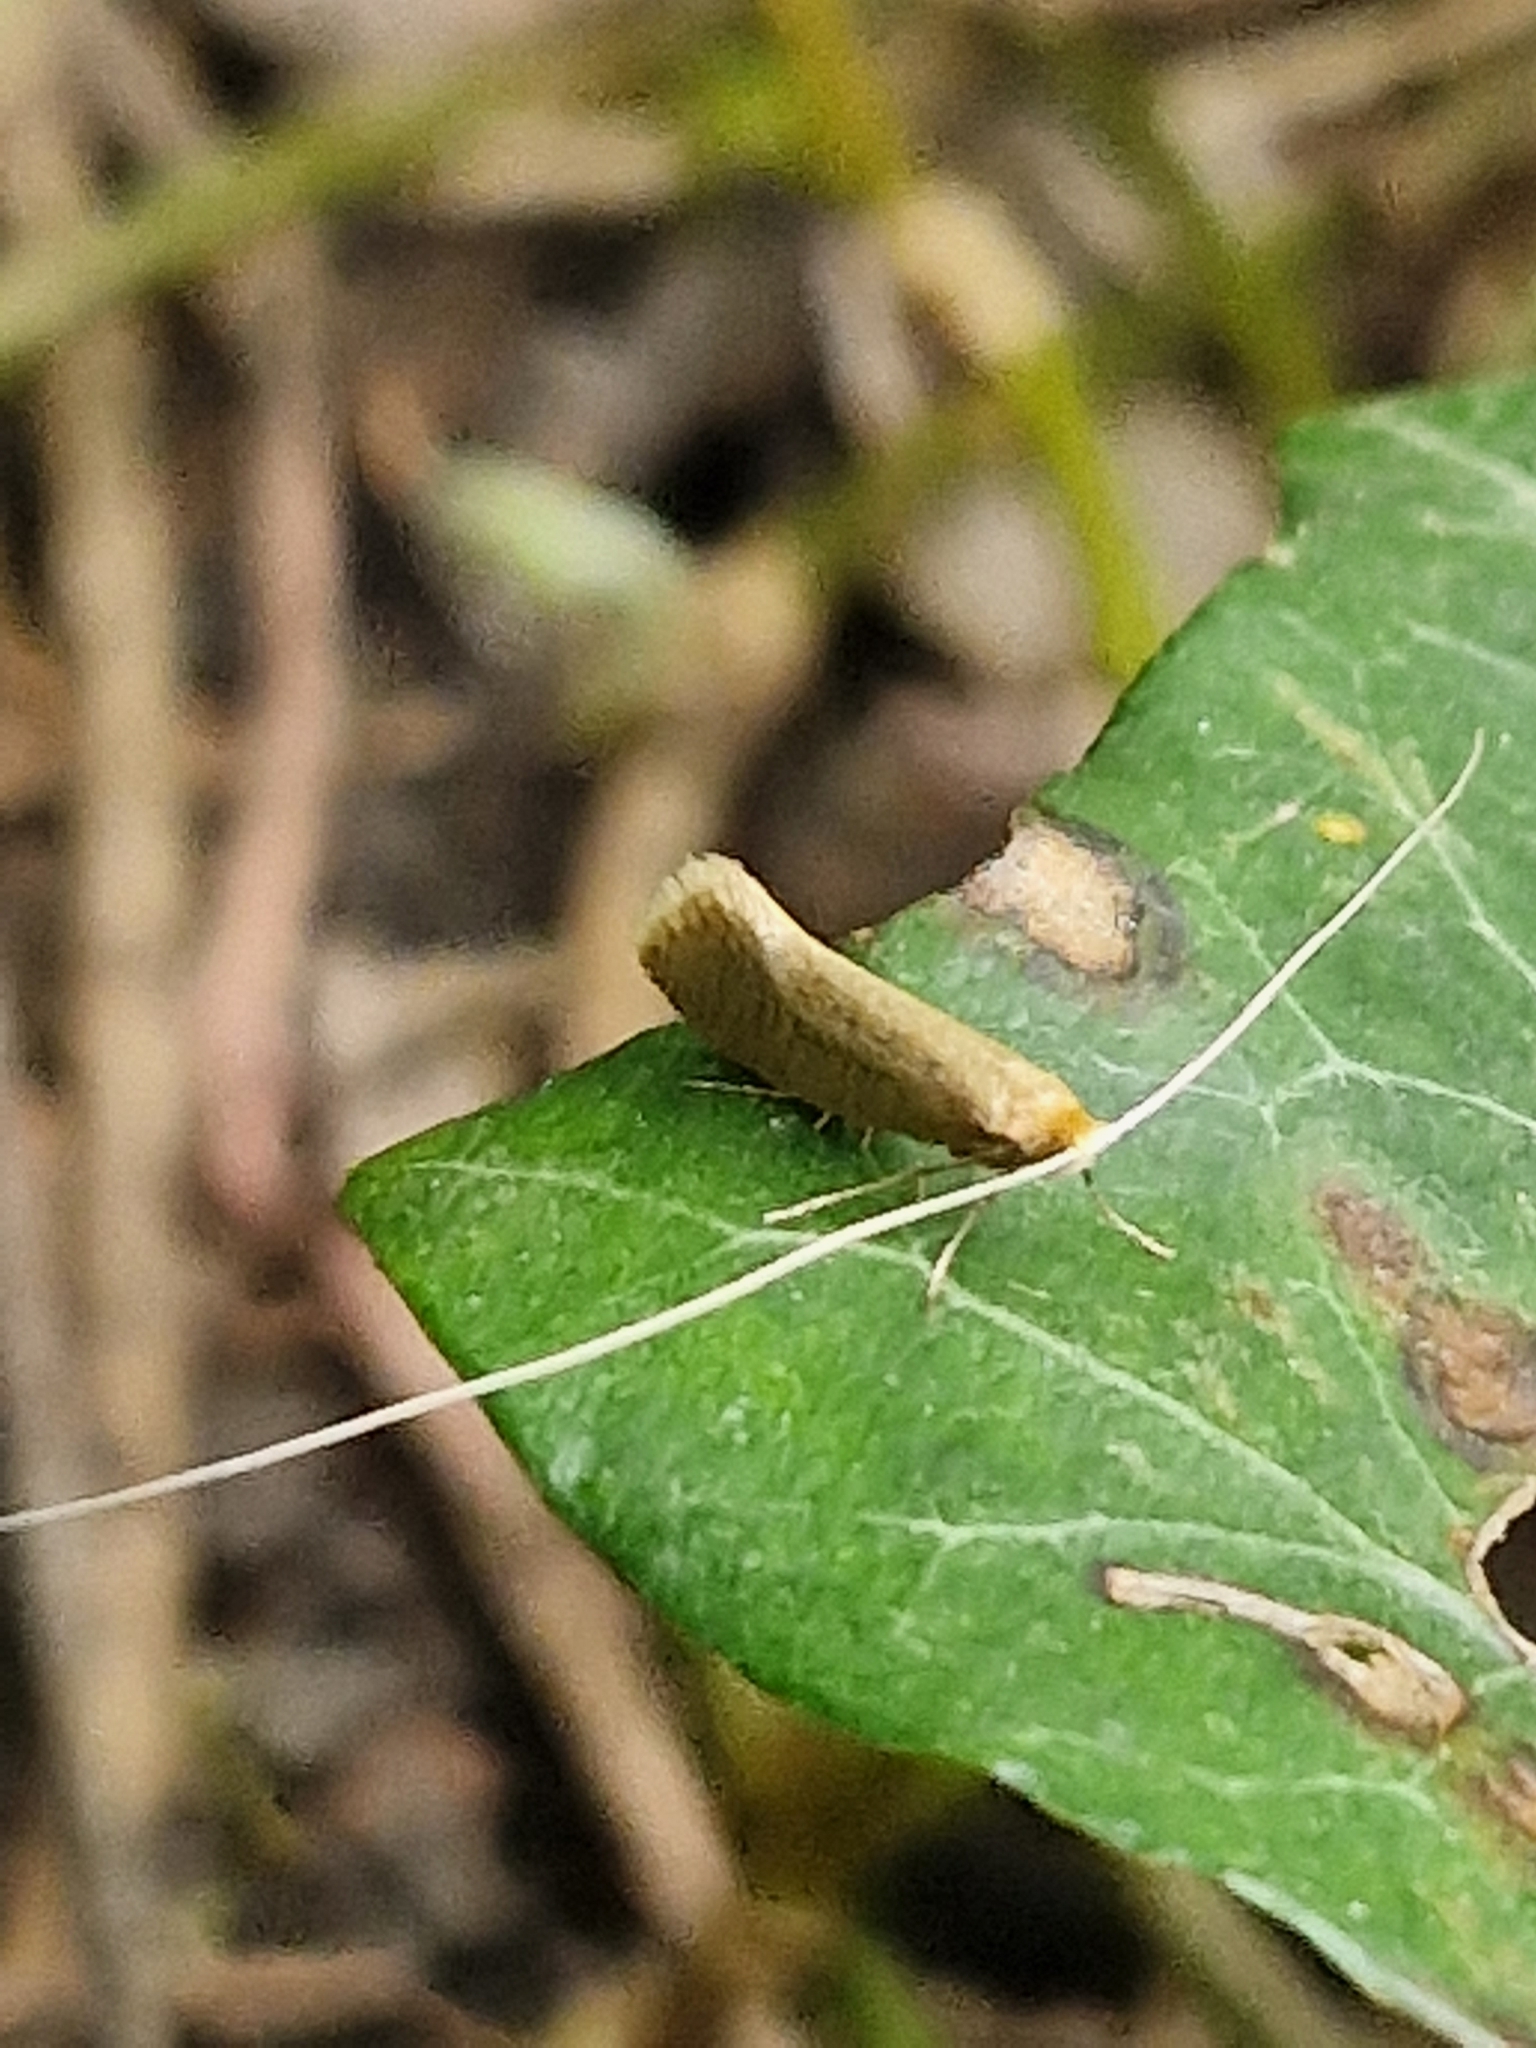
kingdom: Animalia
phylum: Arthropoda
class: Insecta
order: Lepidoptera
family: Adelidae
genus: Nematopogon
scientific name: Nematopogon swammerdamella
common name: Large long-horn
